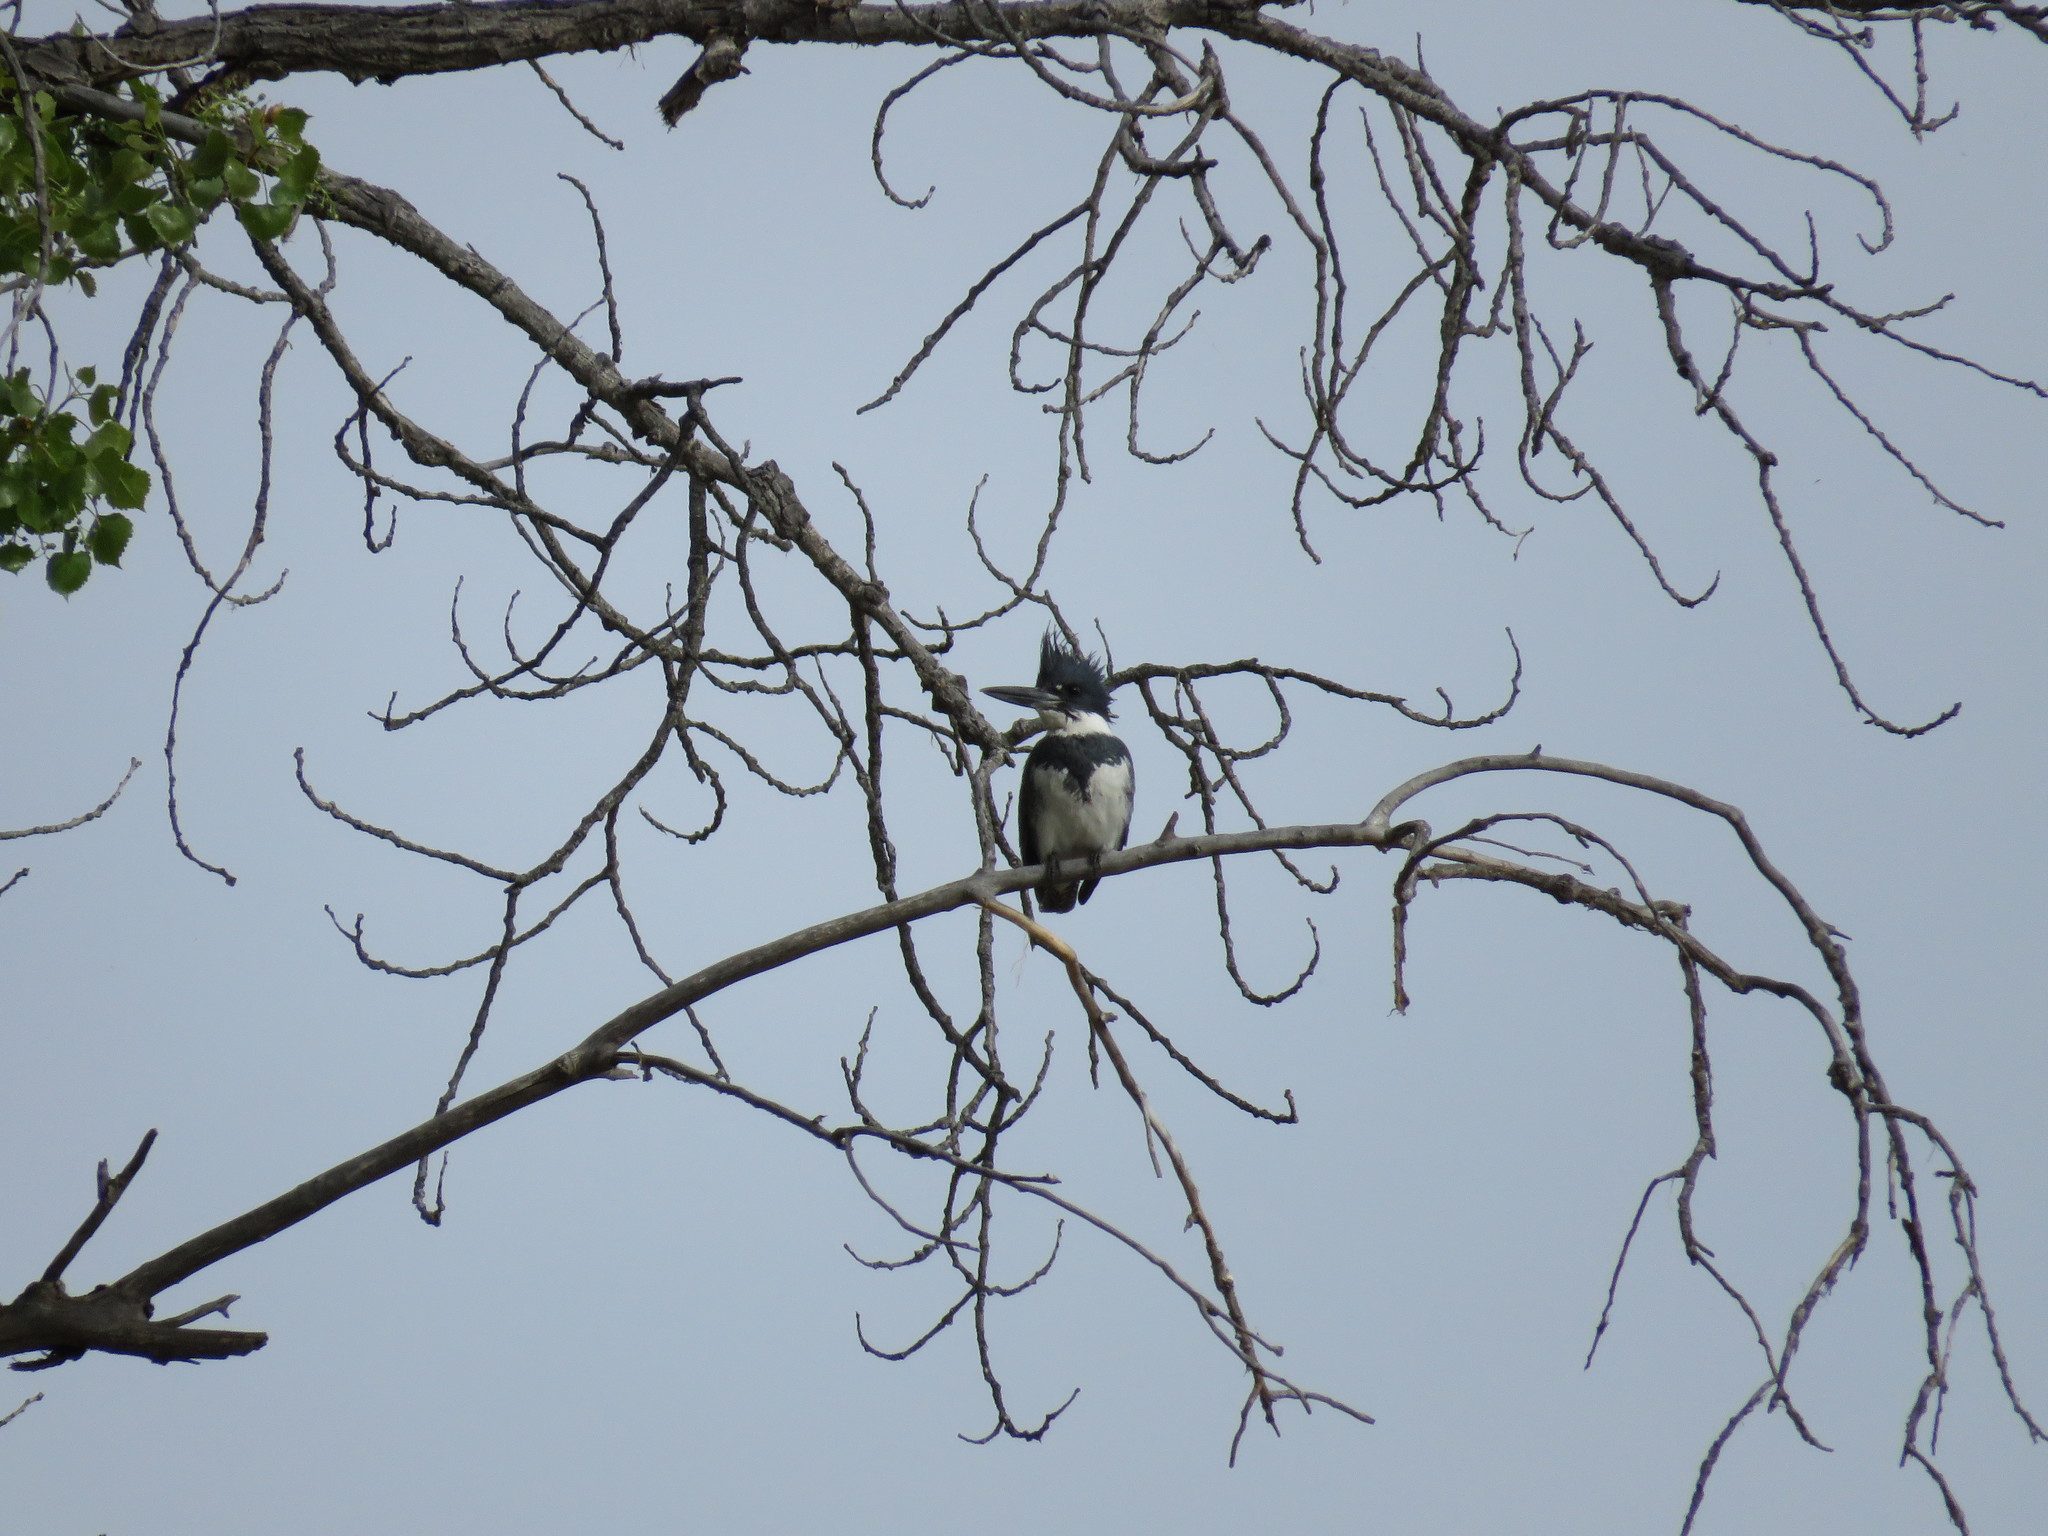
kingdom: Animalia
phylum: Chordata
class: Aves
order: Coraciiformes
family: Alcedinidae
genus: Megaceryle
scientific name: Megaceryle alcyon
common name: Belted kingfisher
